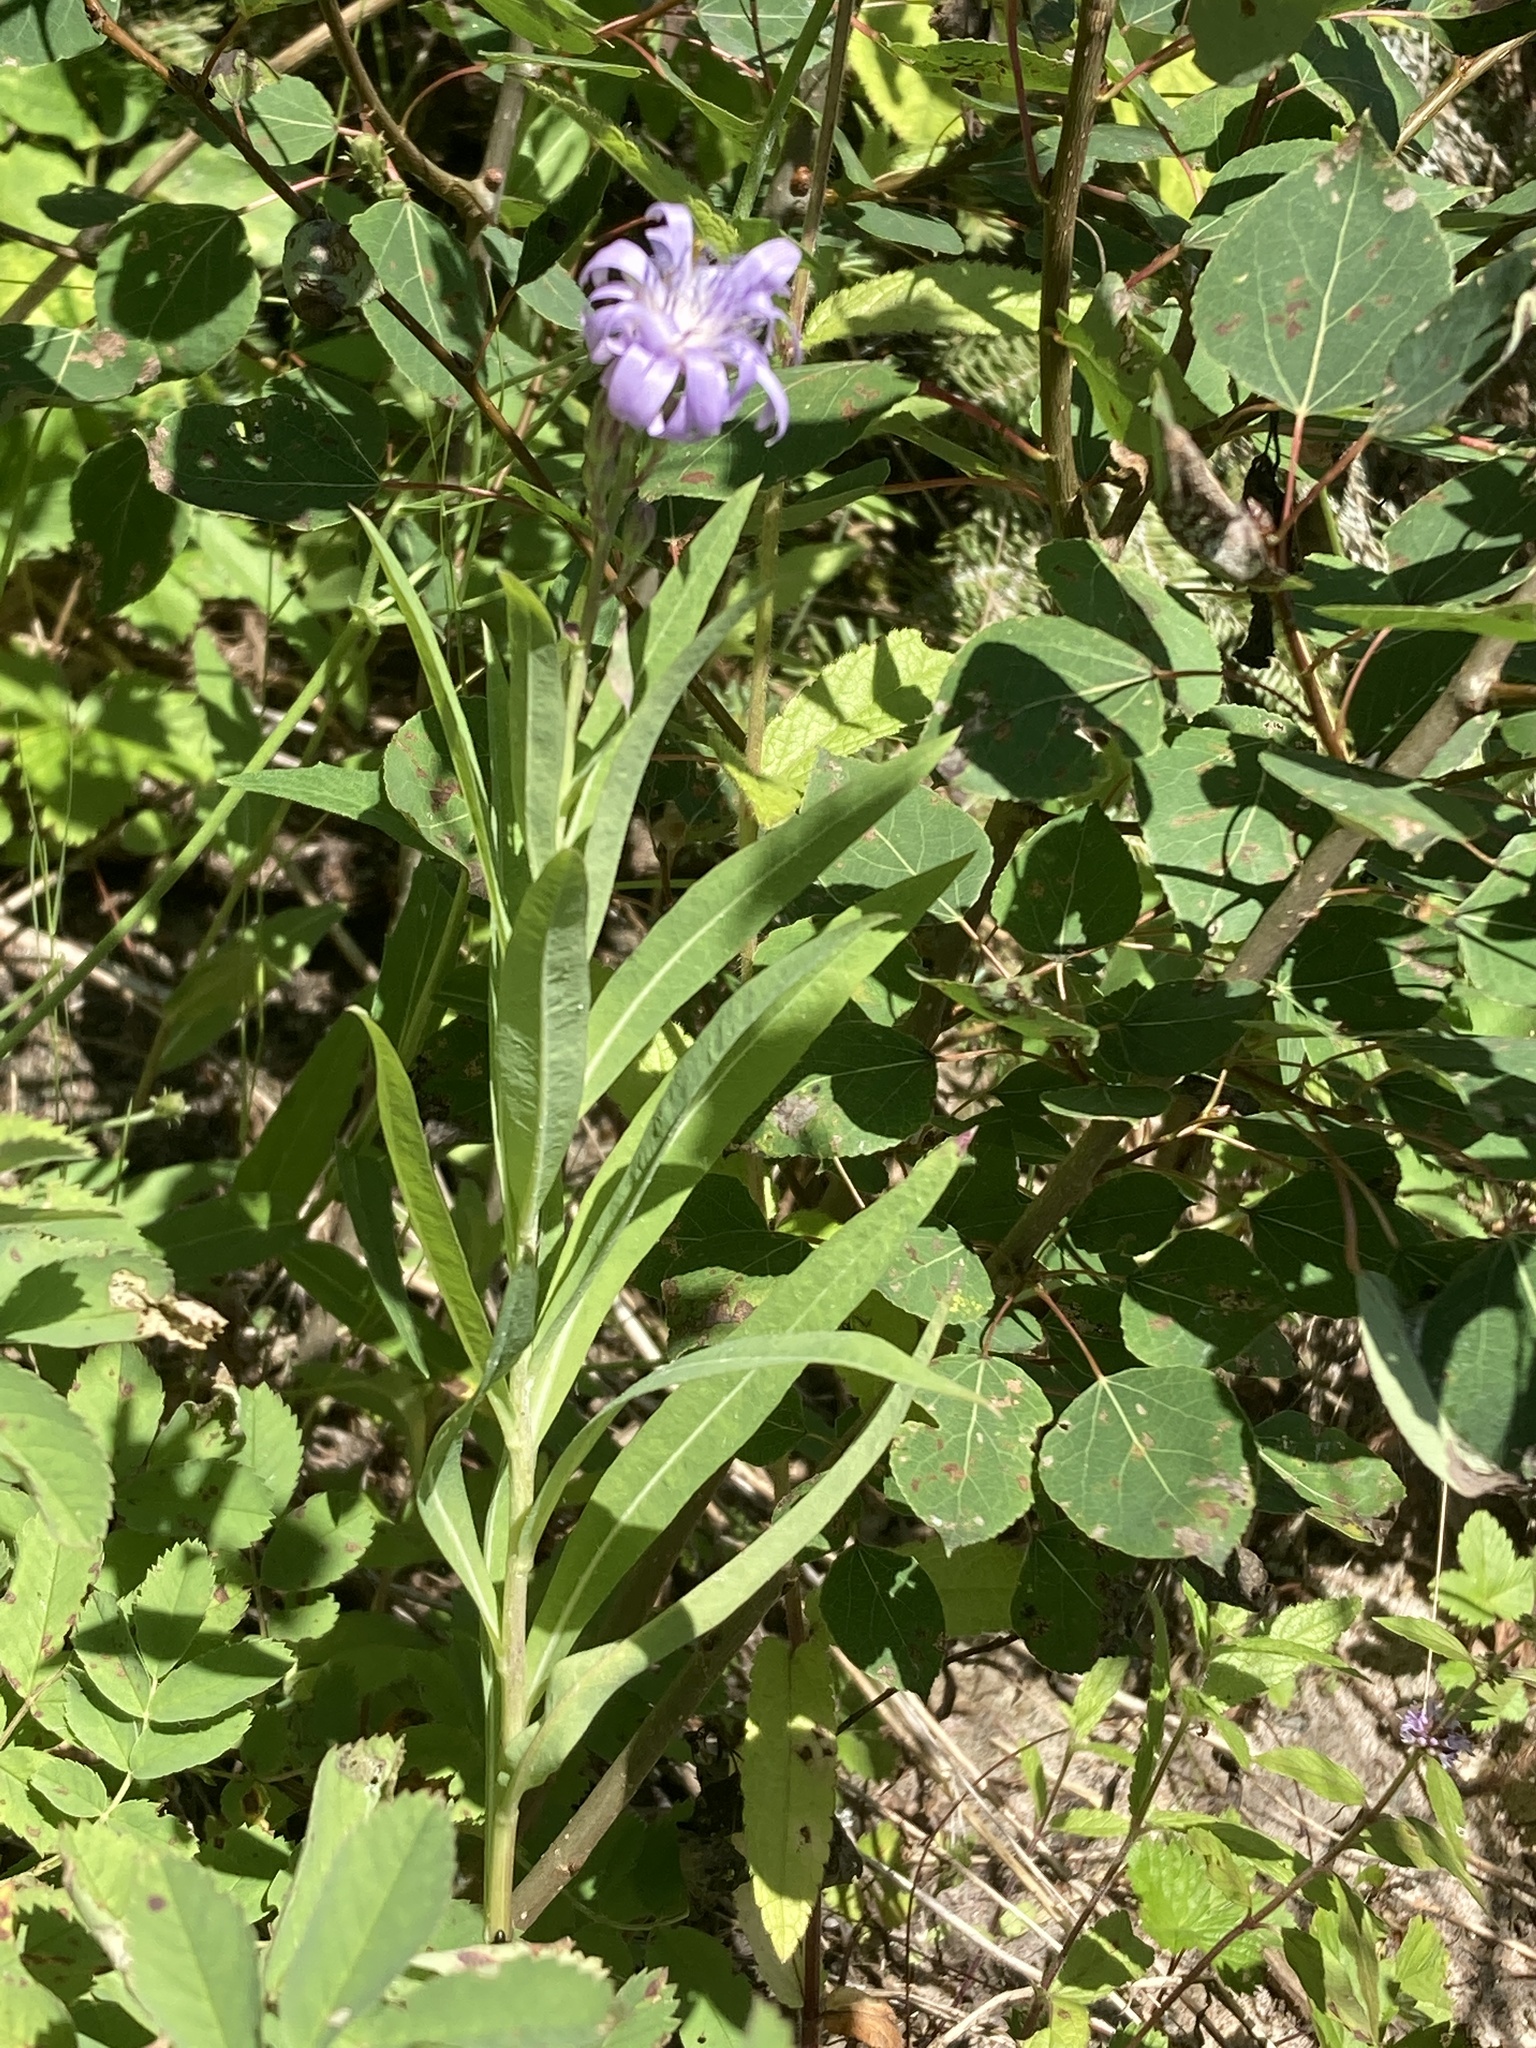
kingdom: Plantae
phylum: Tracheophyta
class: Magnoliopsida
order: Asterales
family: Asteraceae
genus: Lactuca
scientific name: Lactuca pulchella
